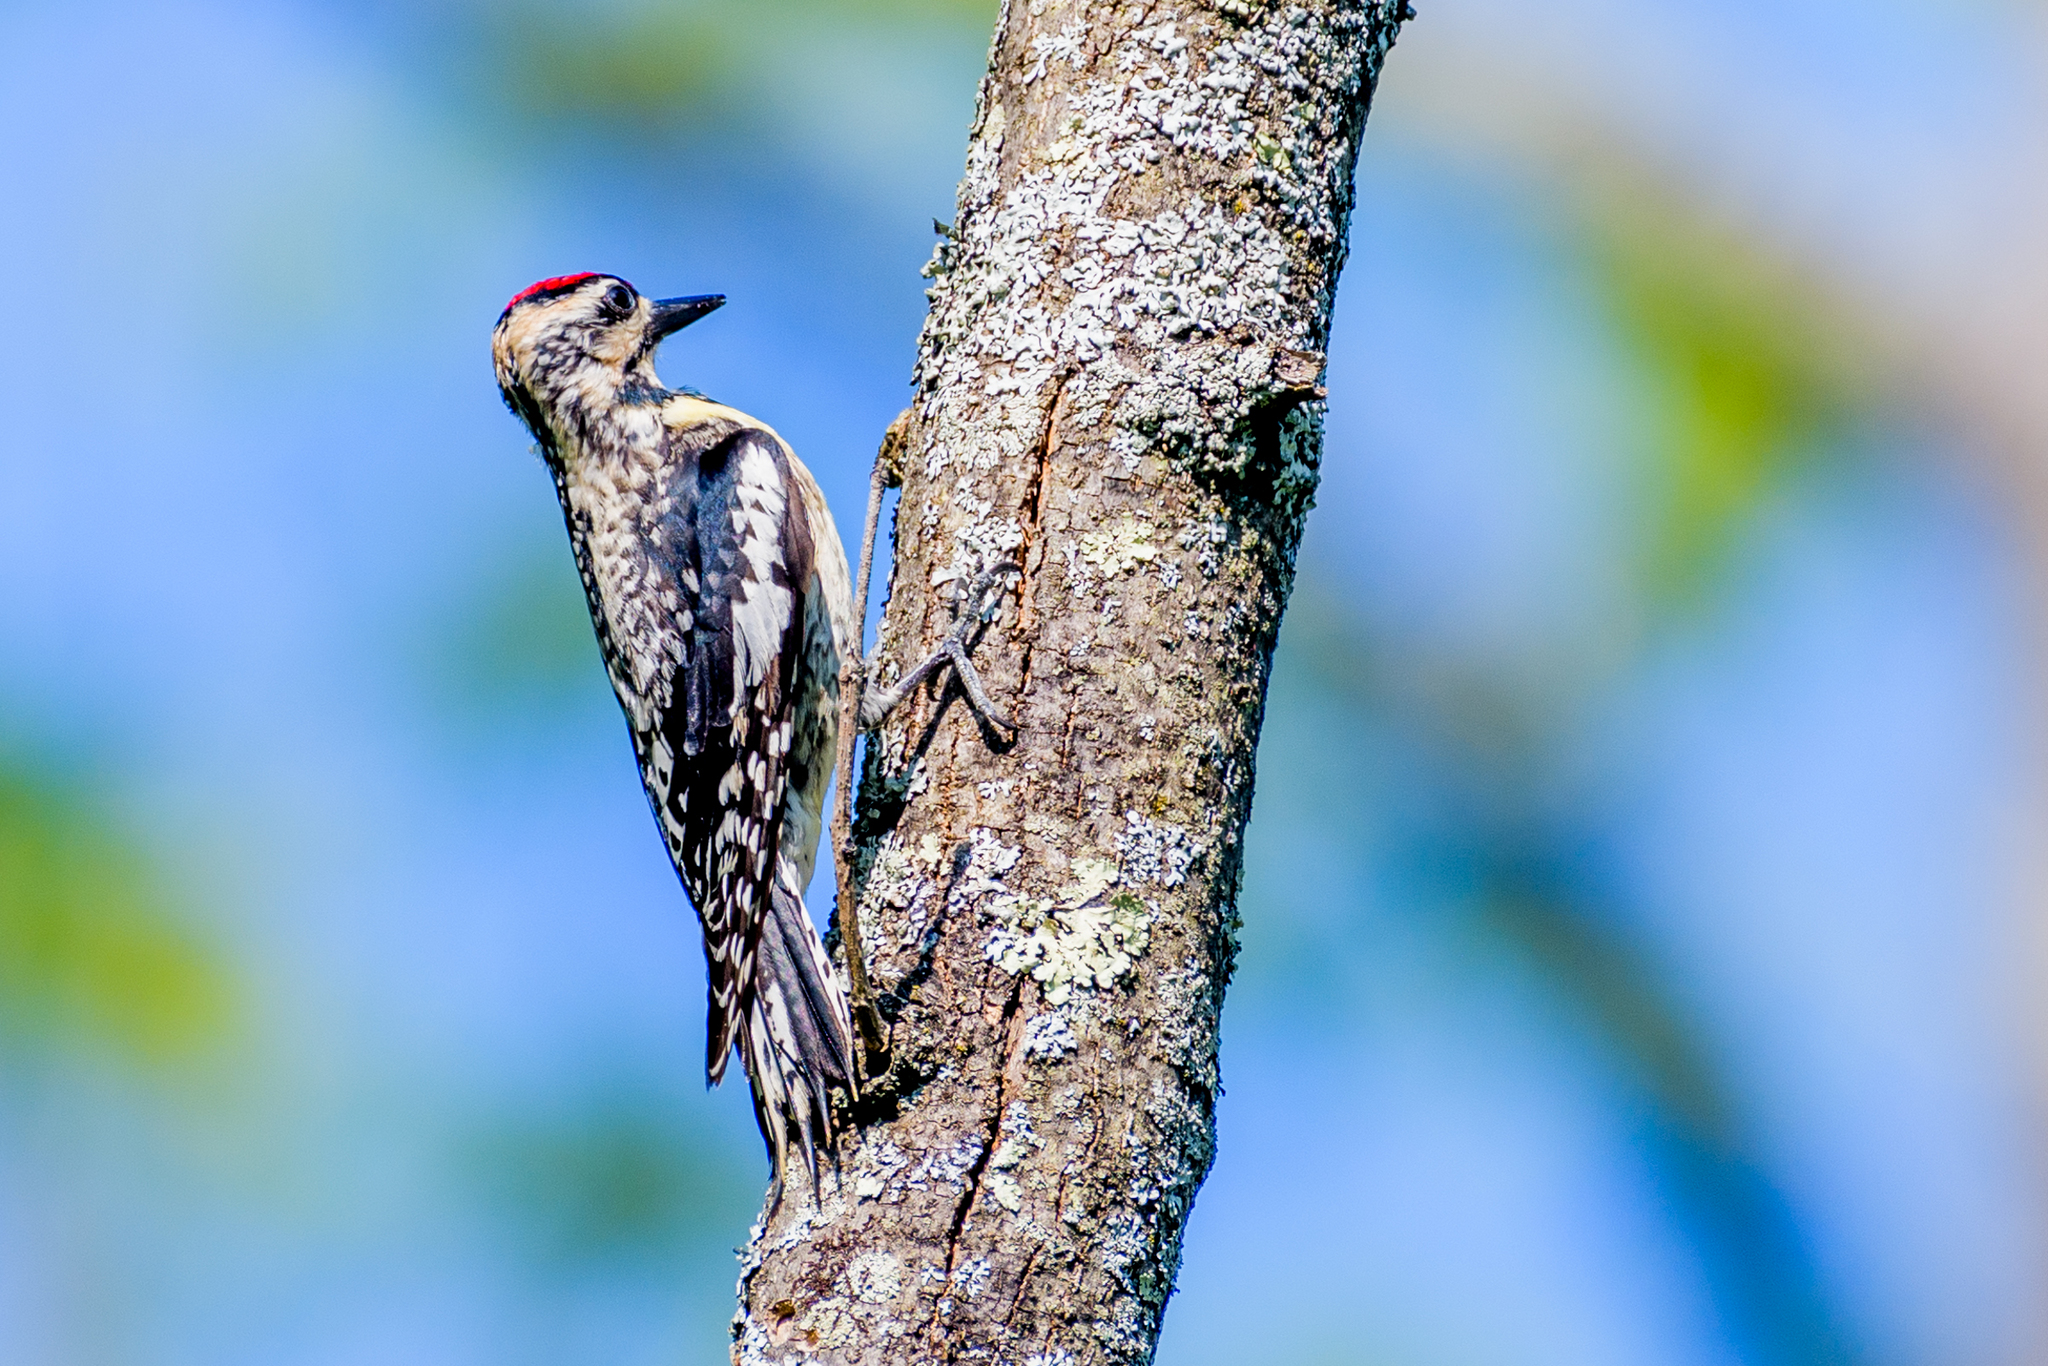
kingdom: Animalia
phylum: Chordata
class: Aves
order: Piciformes
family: Picidae
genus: Sphyrapicus
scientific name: Sphyrapicus varius
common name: Yellow-bellied sapsucker
